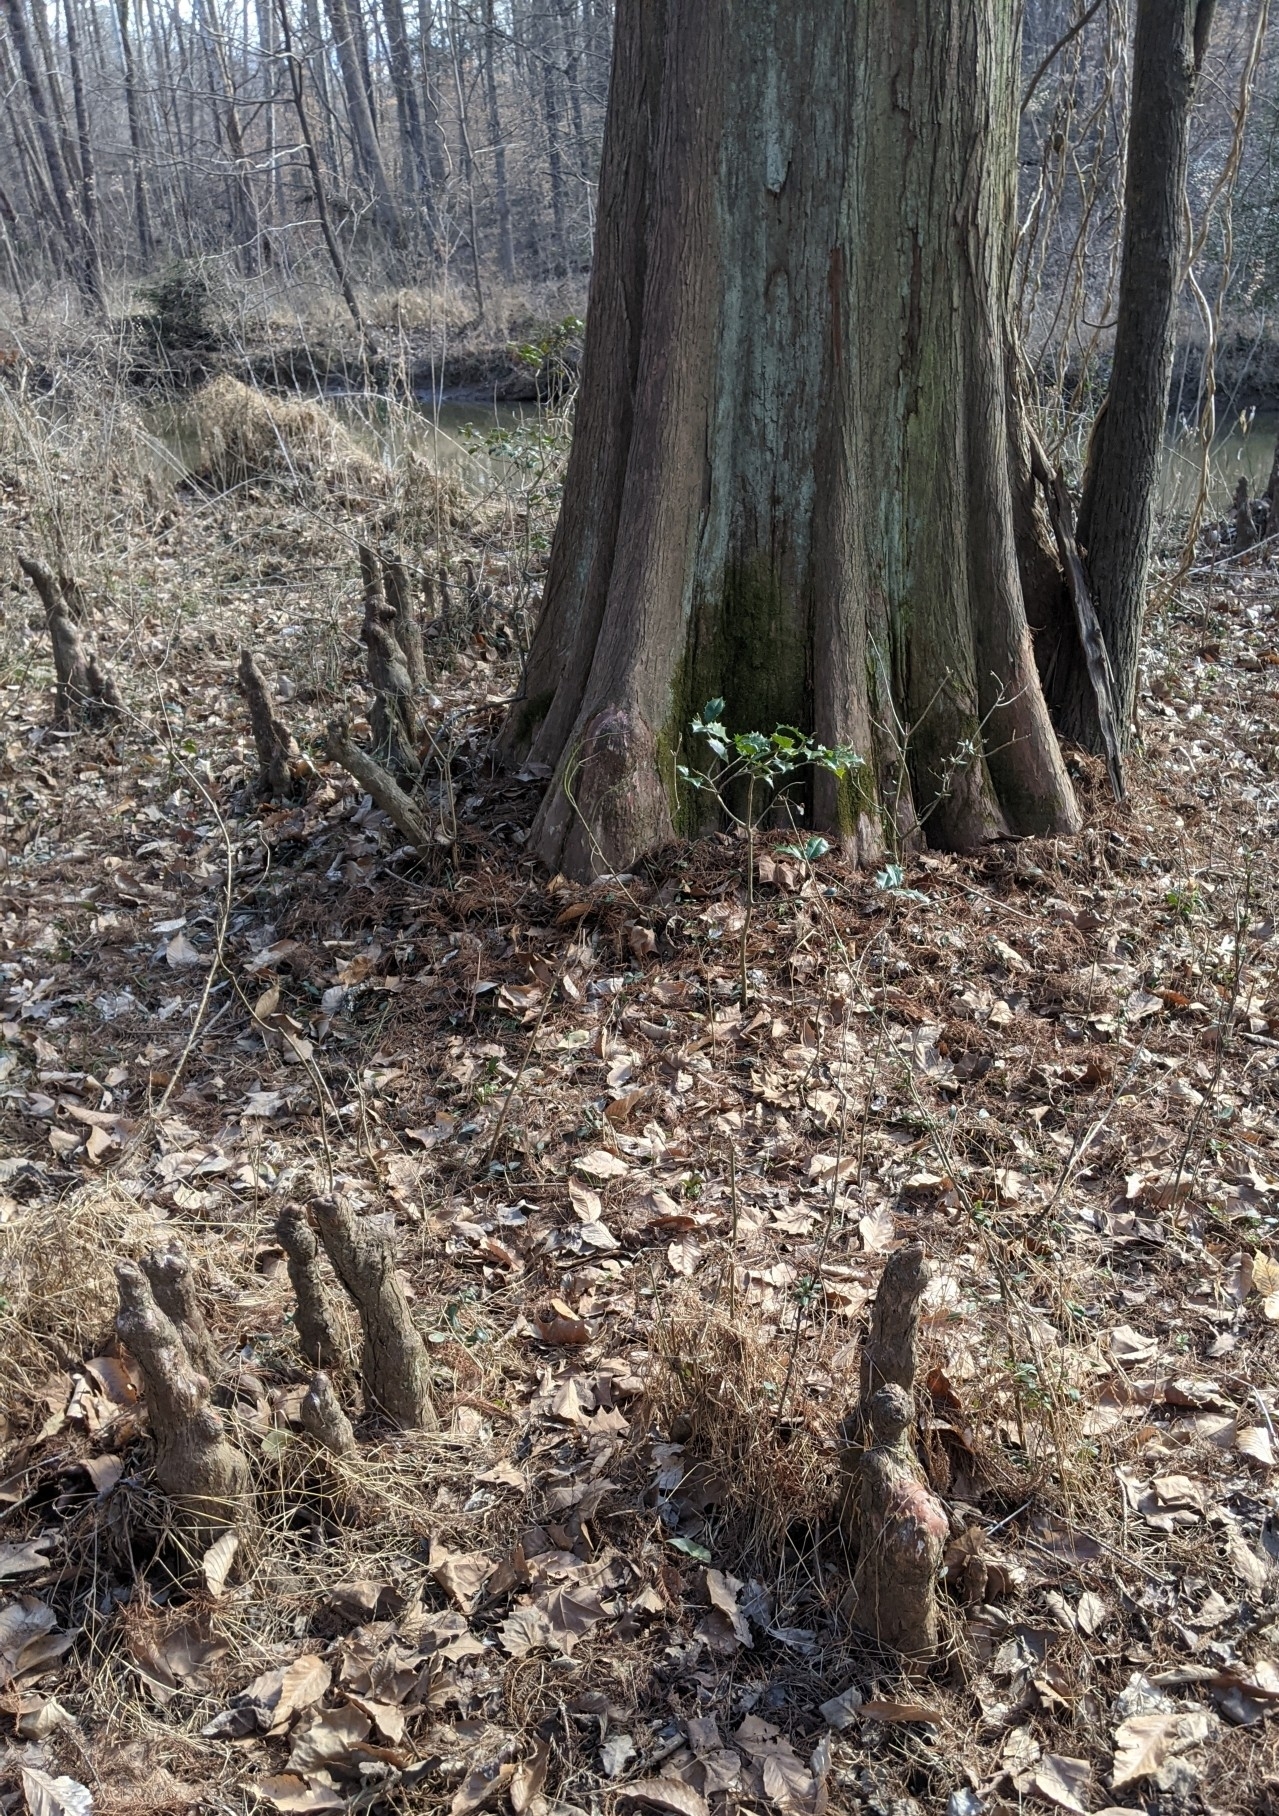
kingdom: Plantae
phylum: Tracheophyta
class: Pinopsida
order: Pinales
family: Cupressaceae
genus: Taxodium
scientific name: Taxodium distichum
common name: Bald cypress
